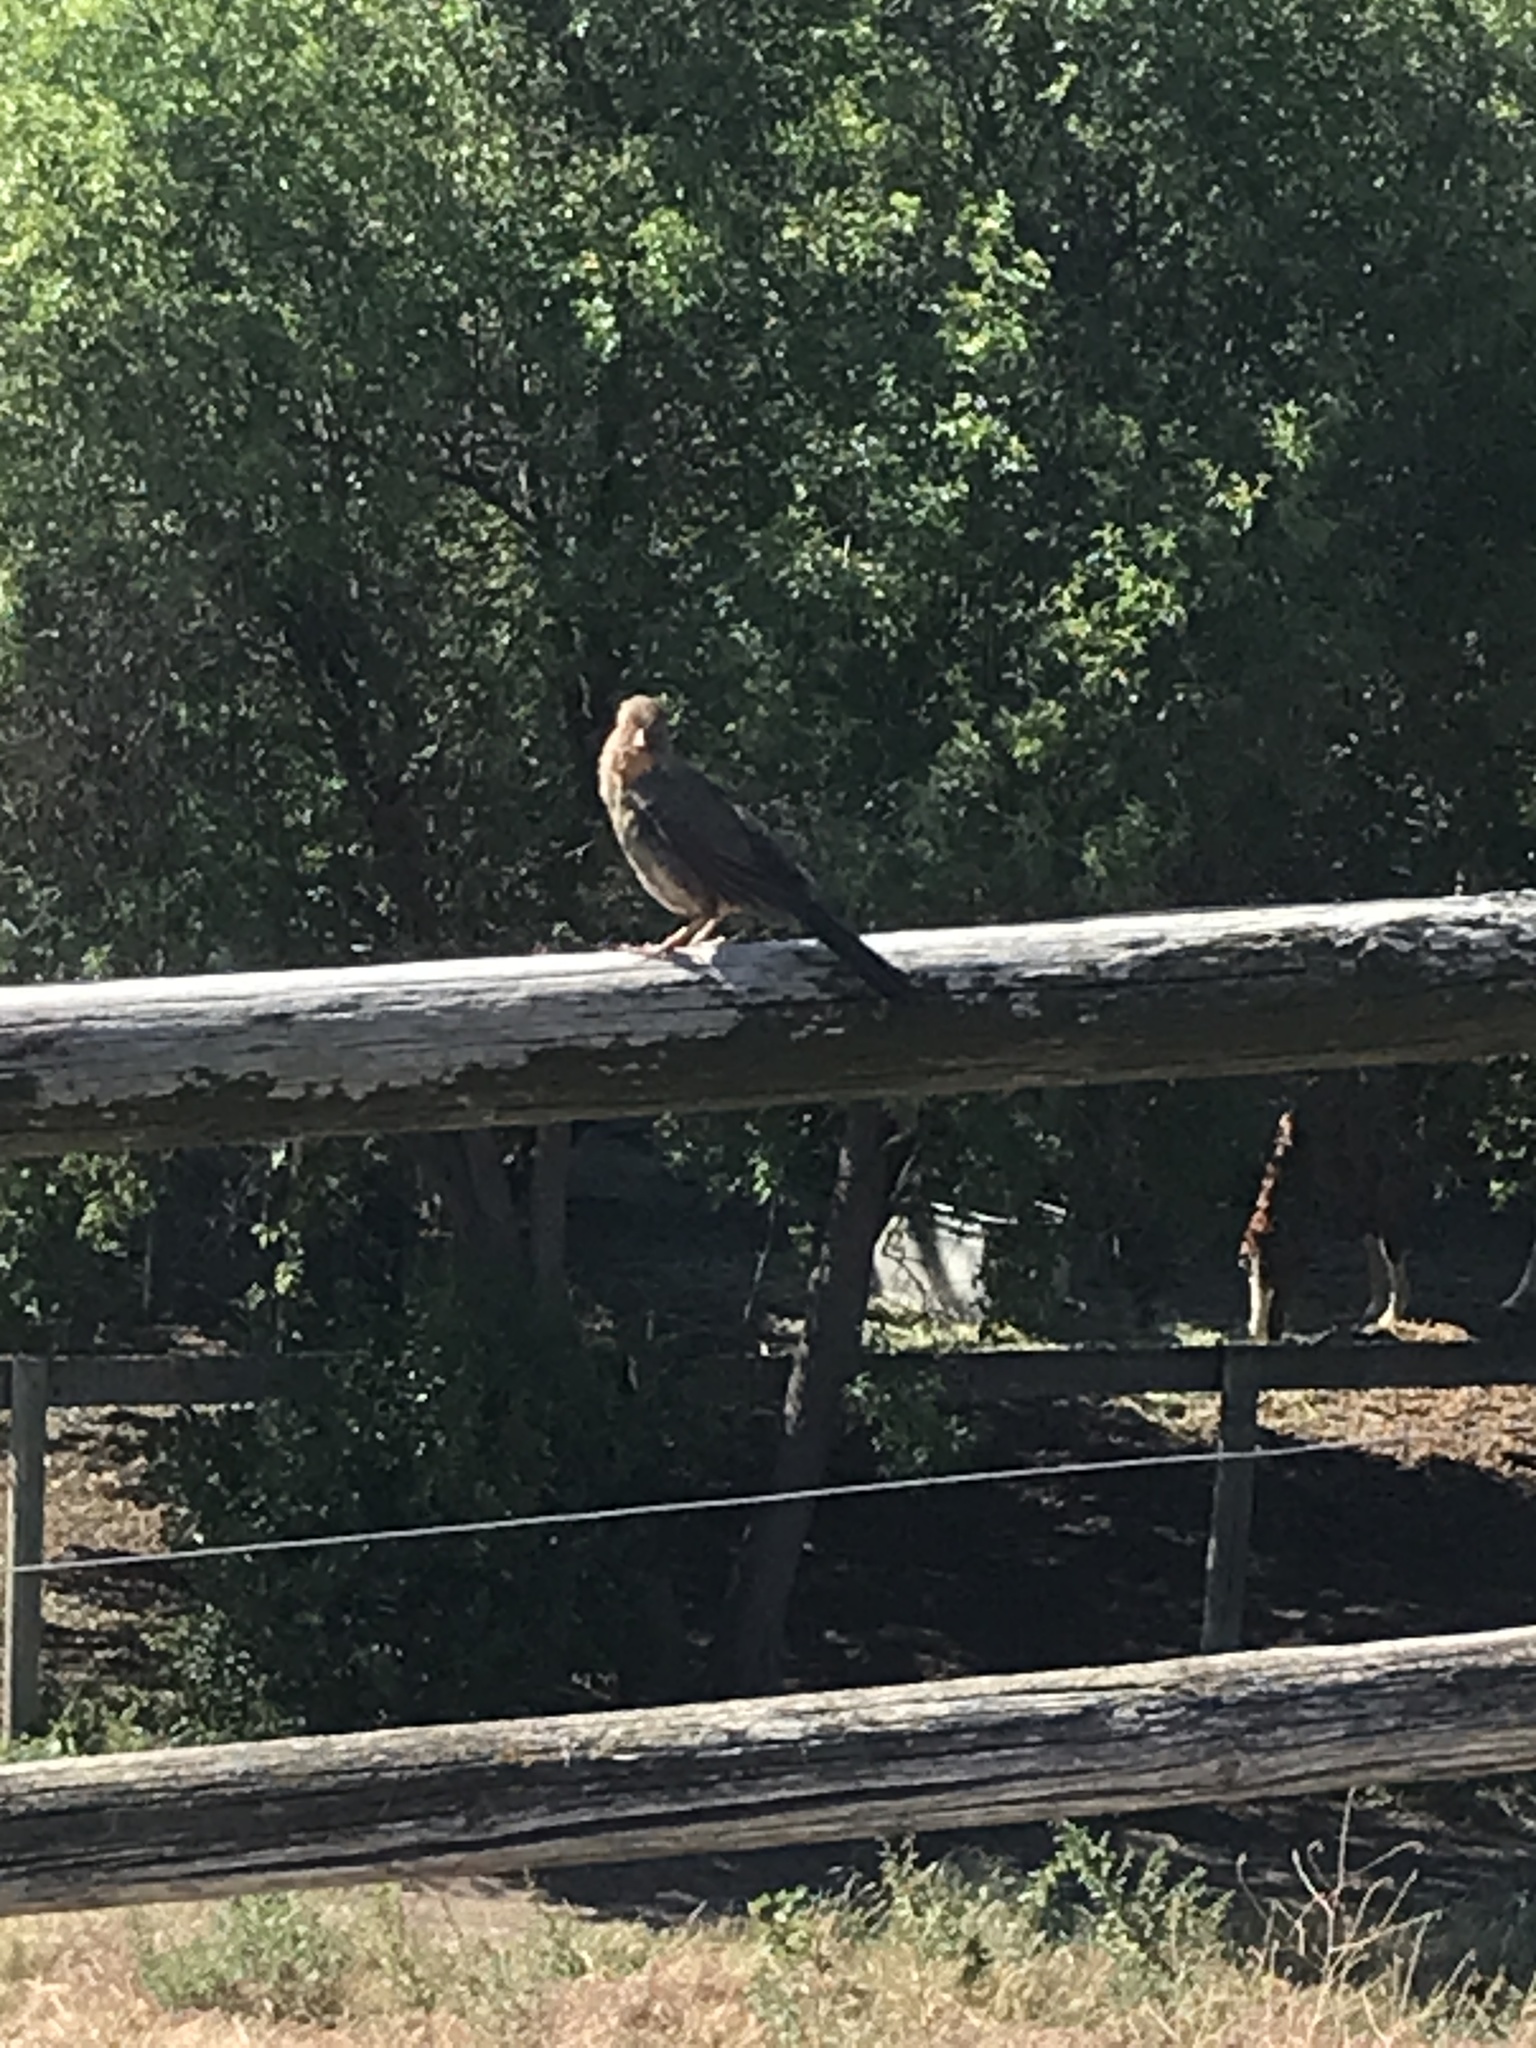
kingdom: Animalia
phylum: Chordata
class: Aves
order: Passeriformes
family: Passerellidae
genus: Melozone
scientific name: Melozone crissalis
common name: California towhee
